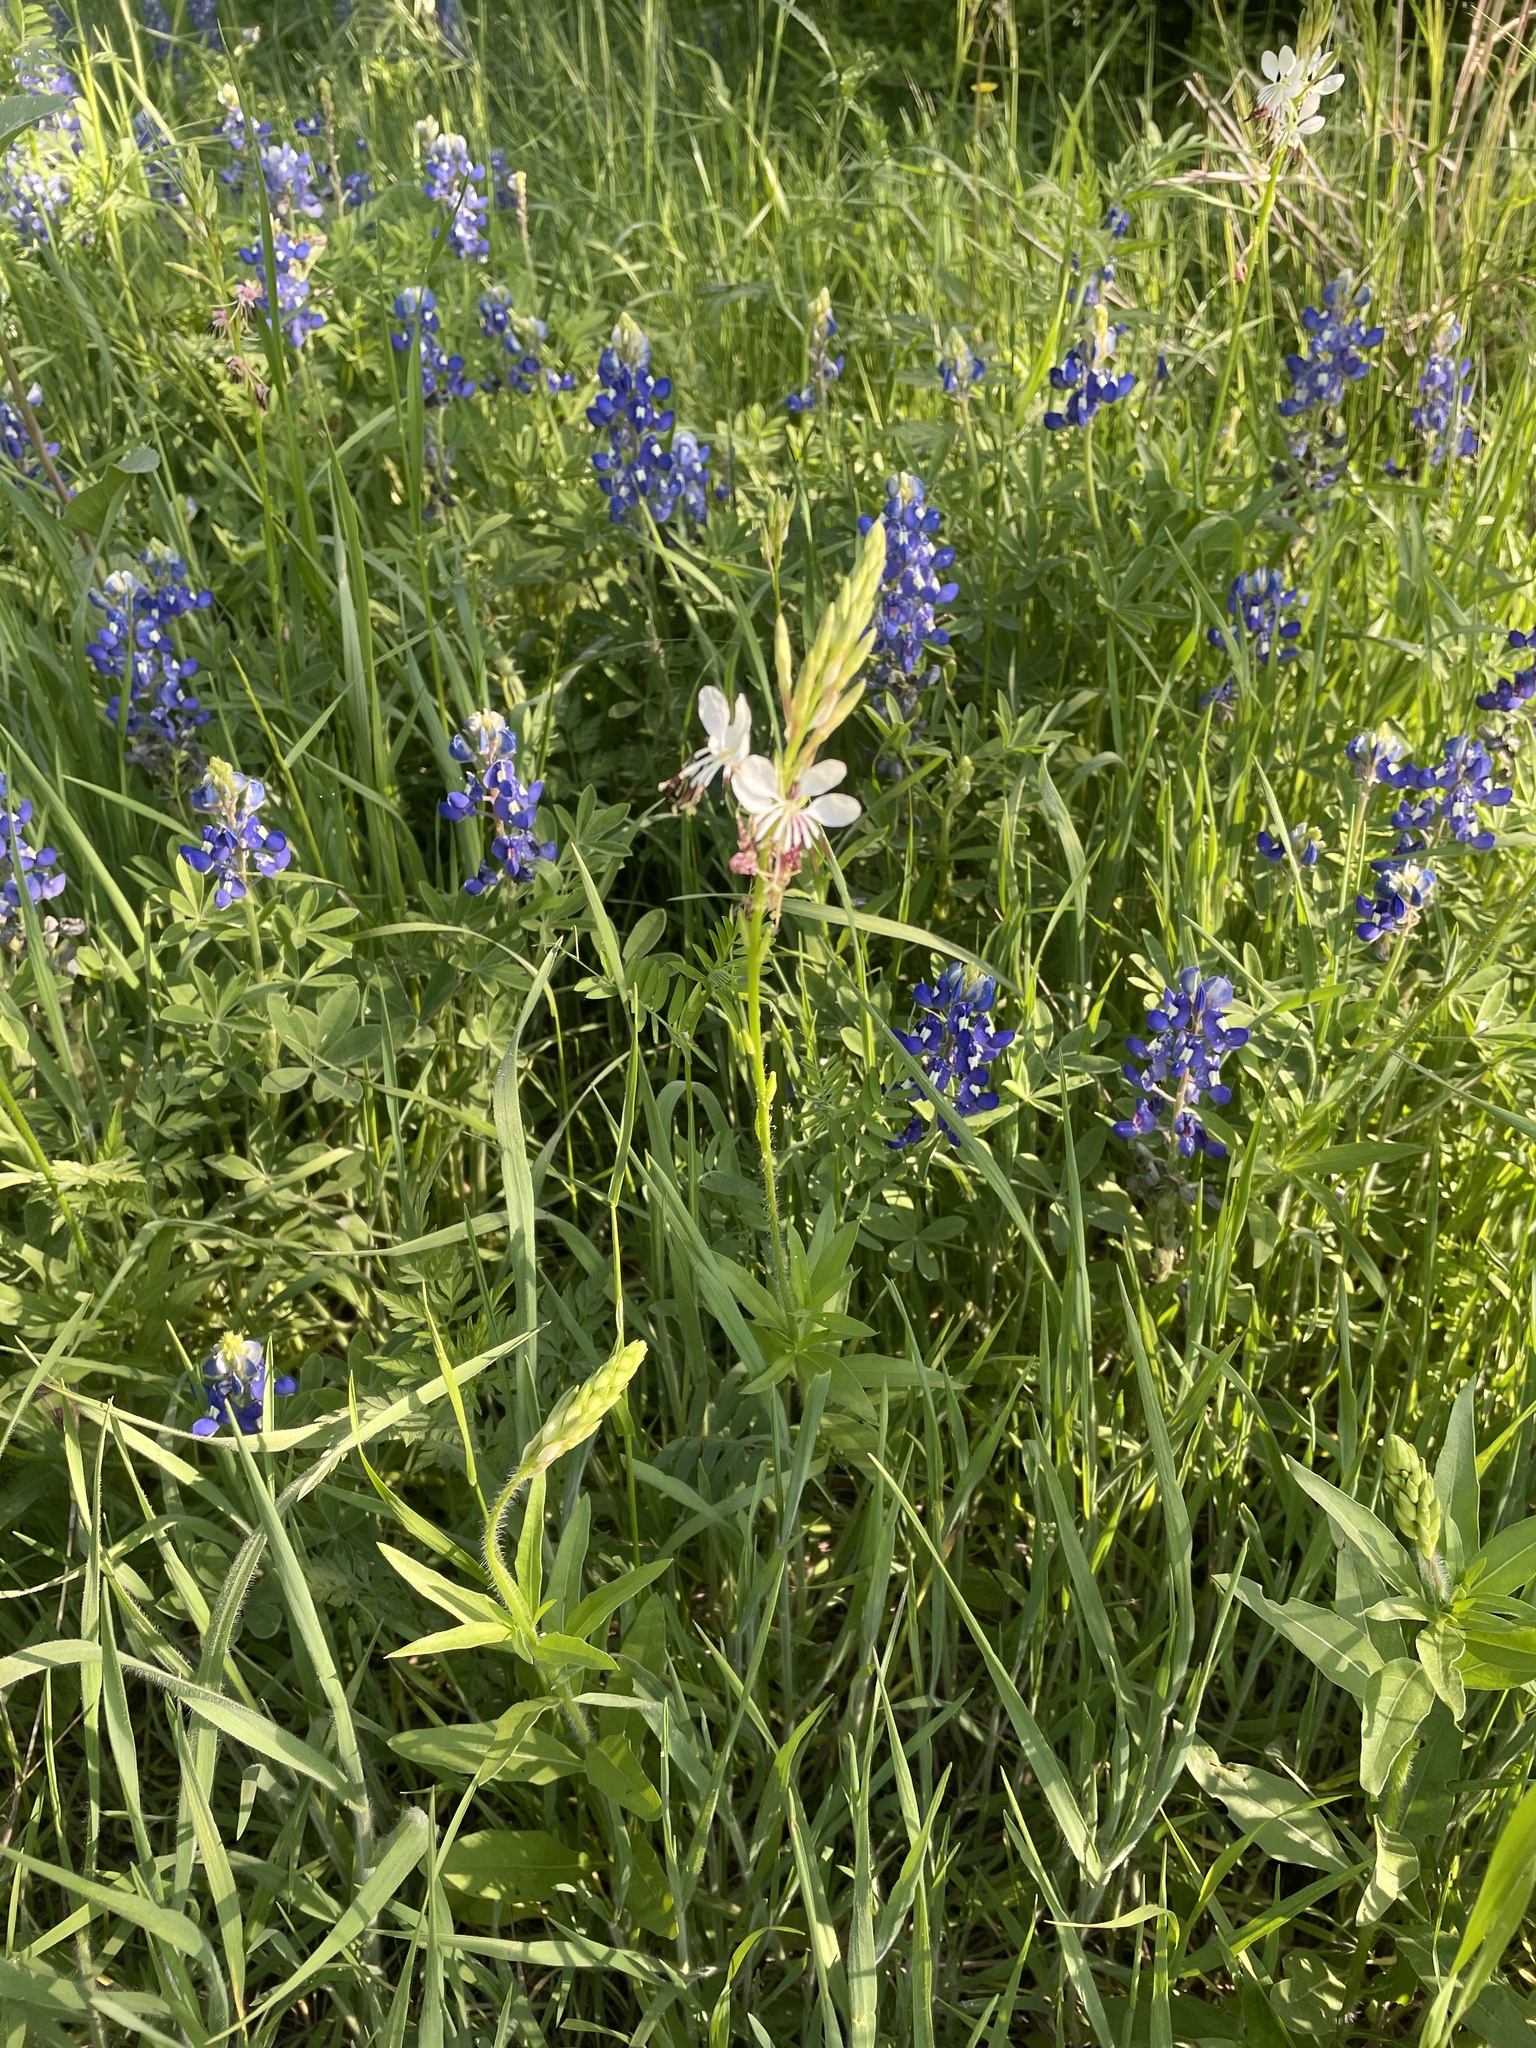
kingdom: Plantae
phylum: Tracheophyta
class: Magnoliopsida
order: Myrtales
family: Onagraceae
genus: Oenothera
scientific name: Oenothera suffulta
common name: Kisses
